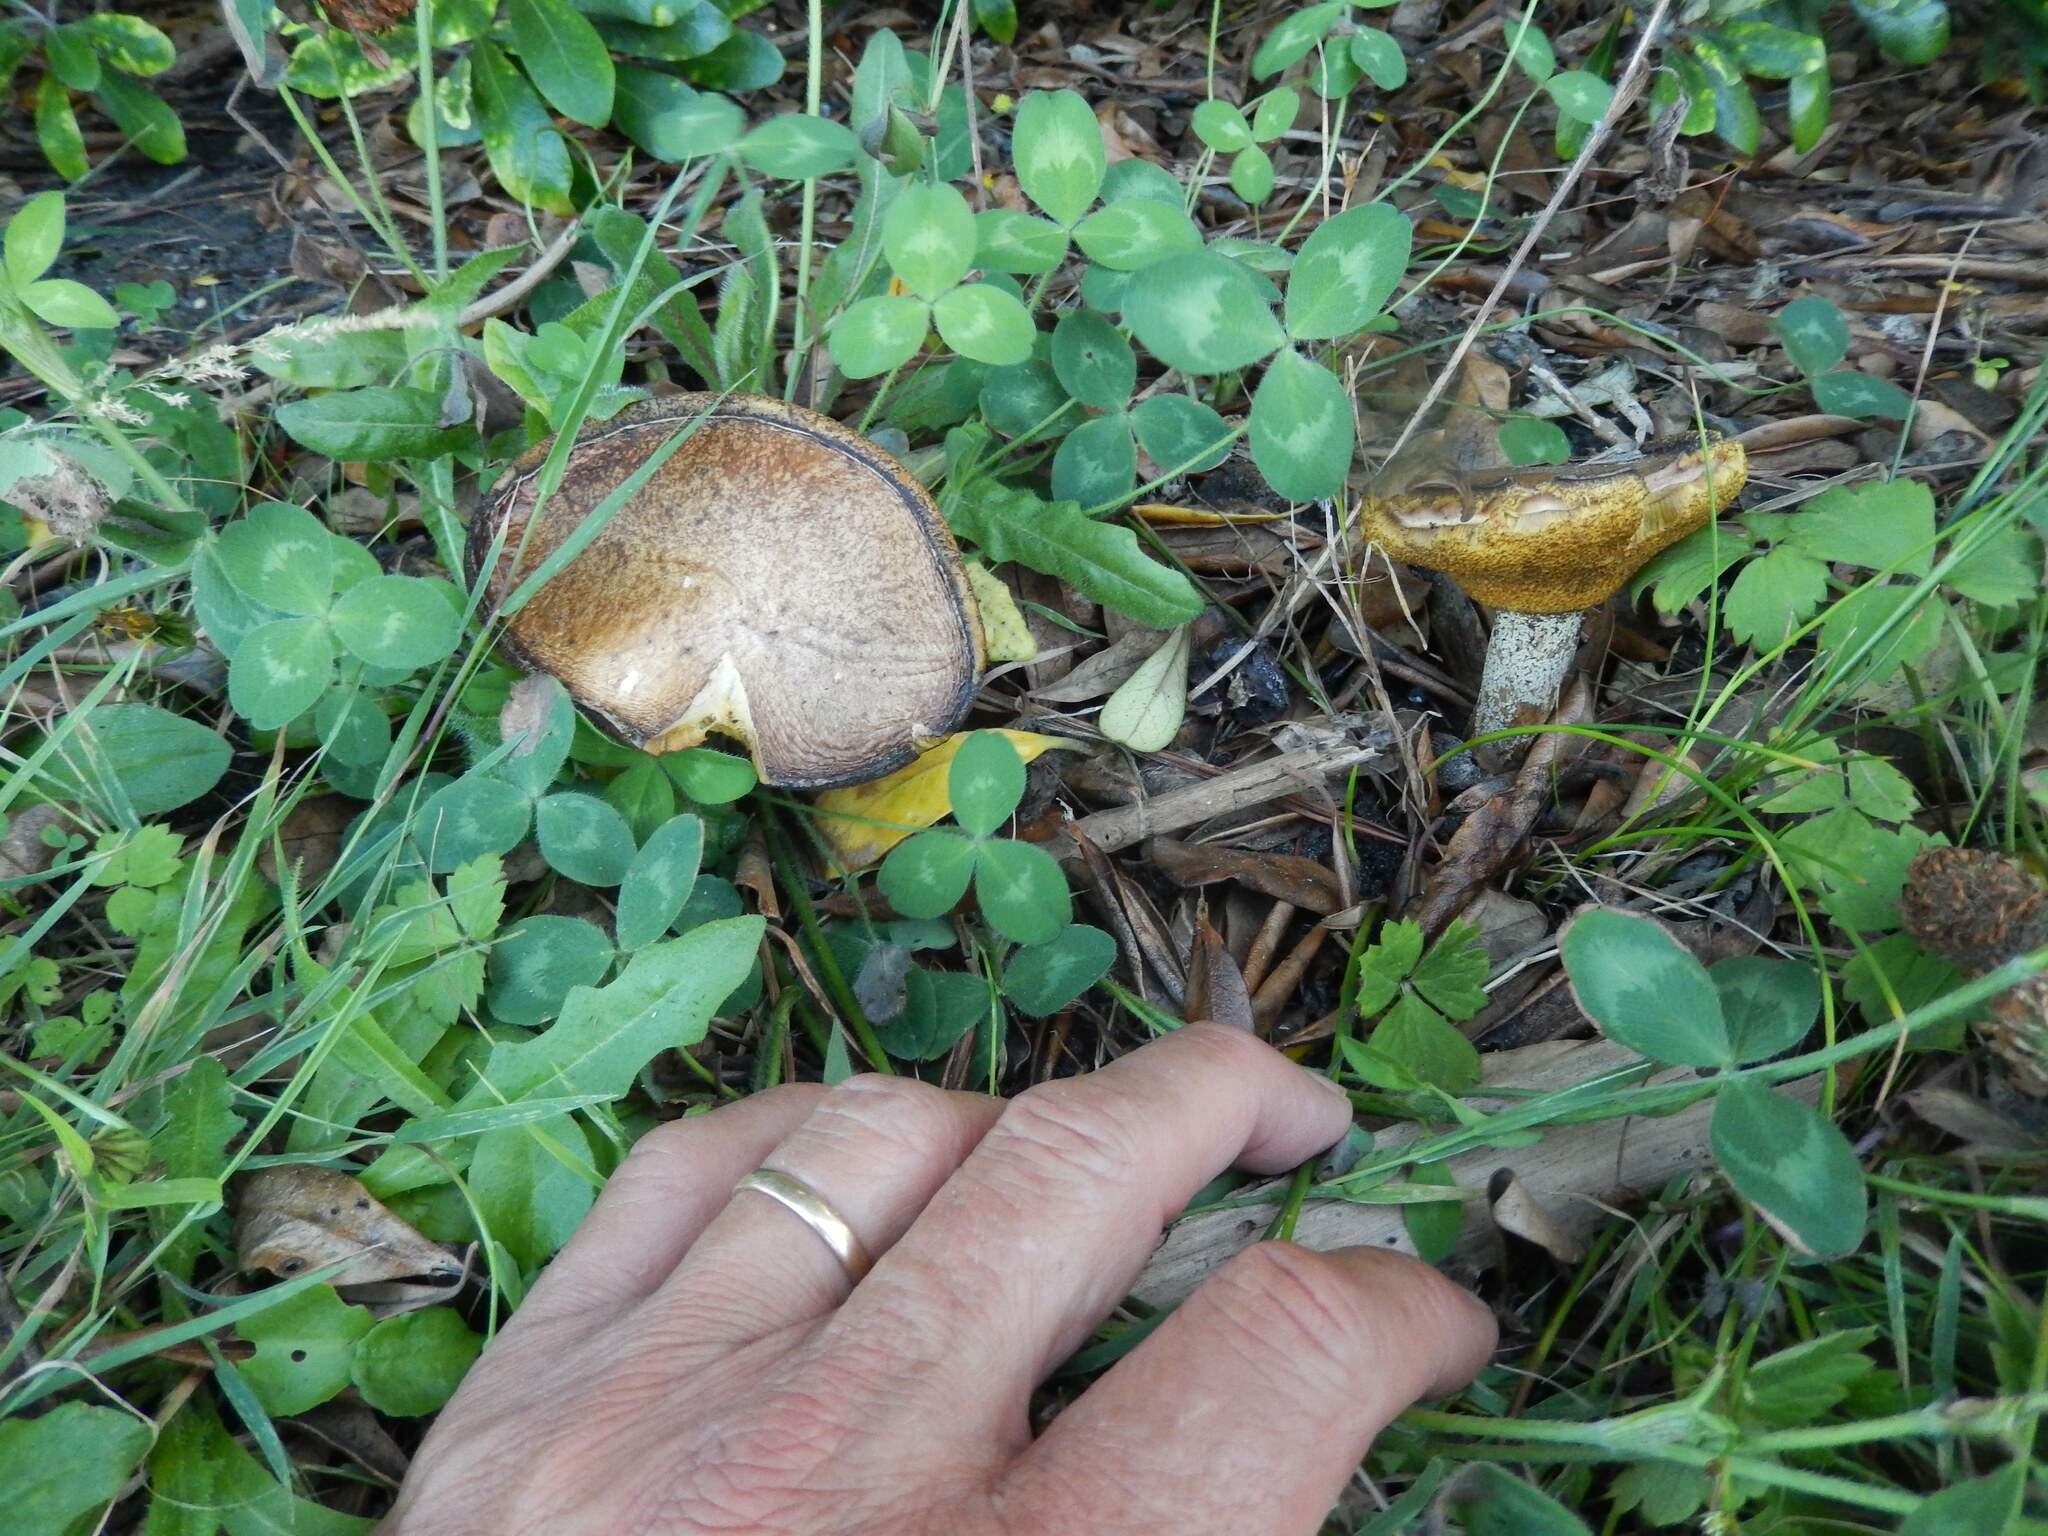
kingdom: Fungi
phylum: Basidiomycota
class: Agaricomycetes
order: Boletales
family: Suillaceae
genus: Suillus
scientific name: Suillus granulatus
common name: Weeping bolete
